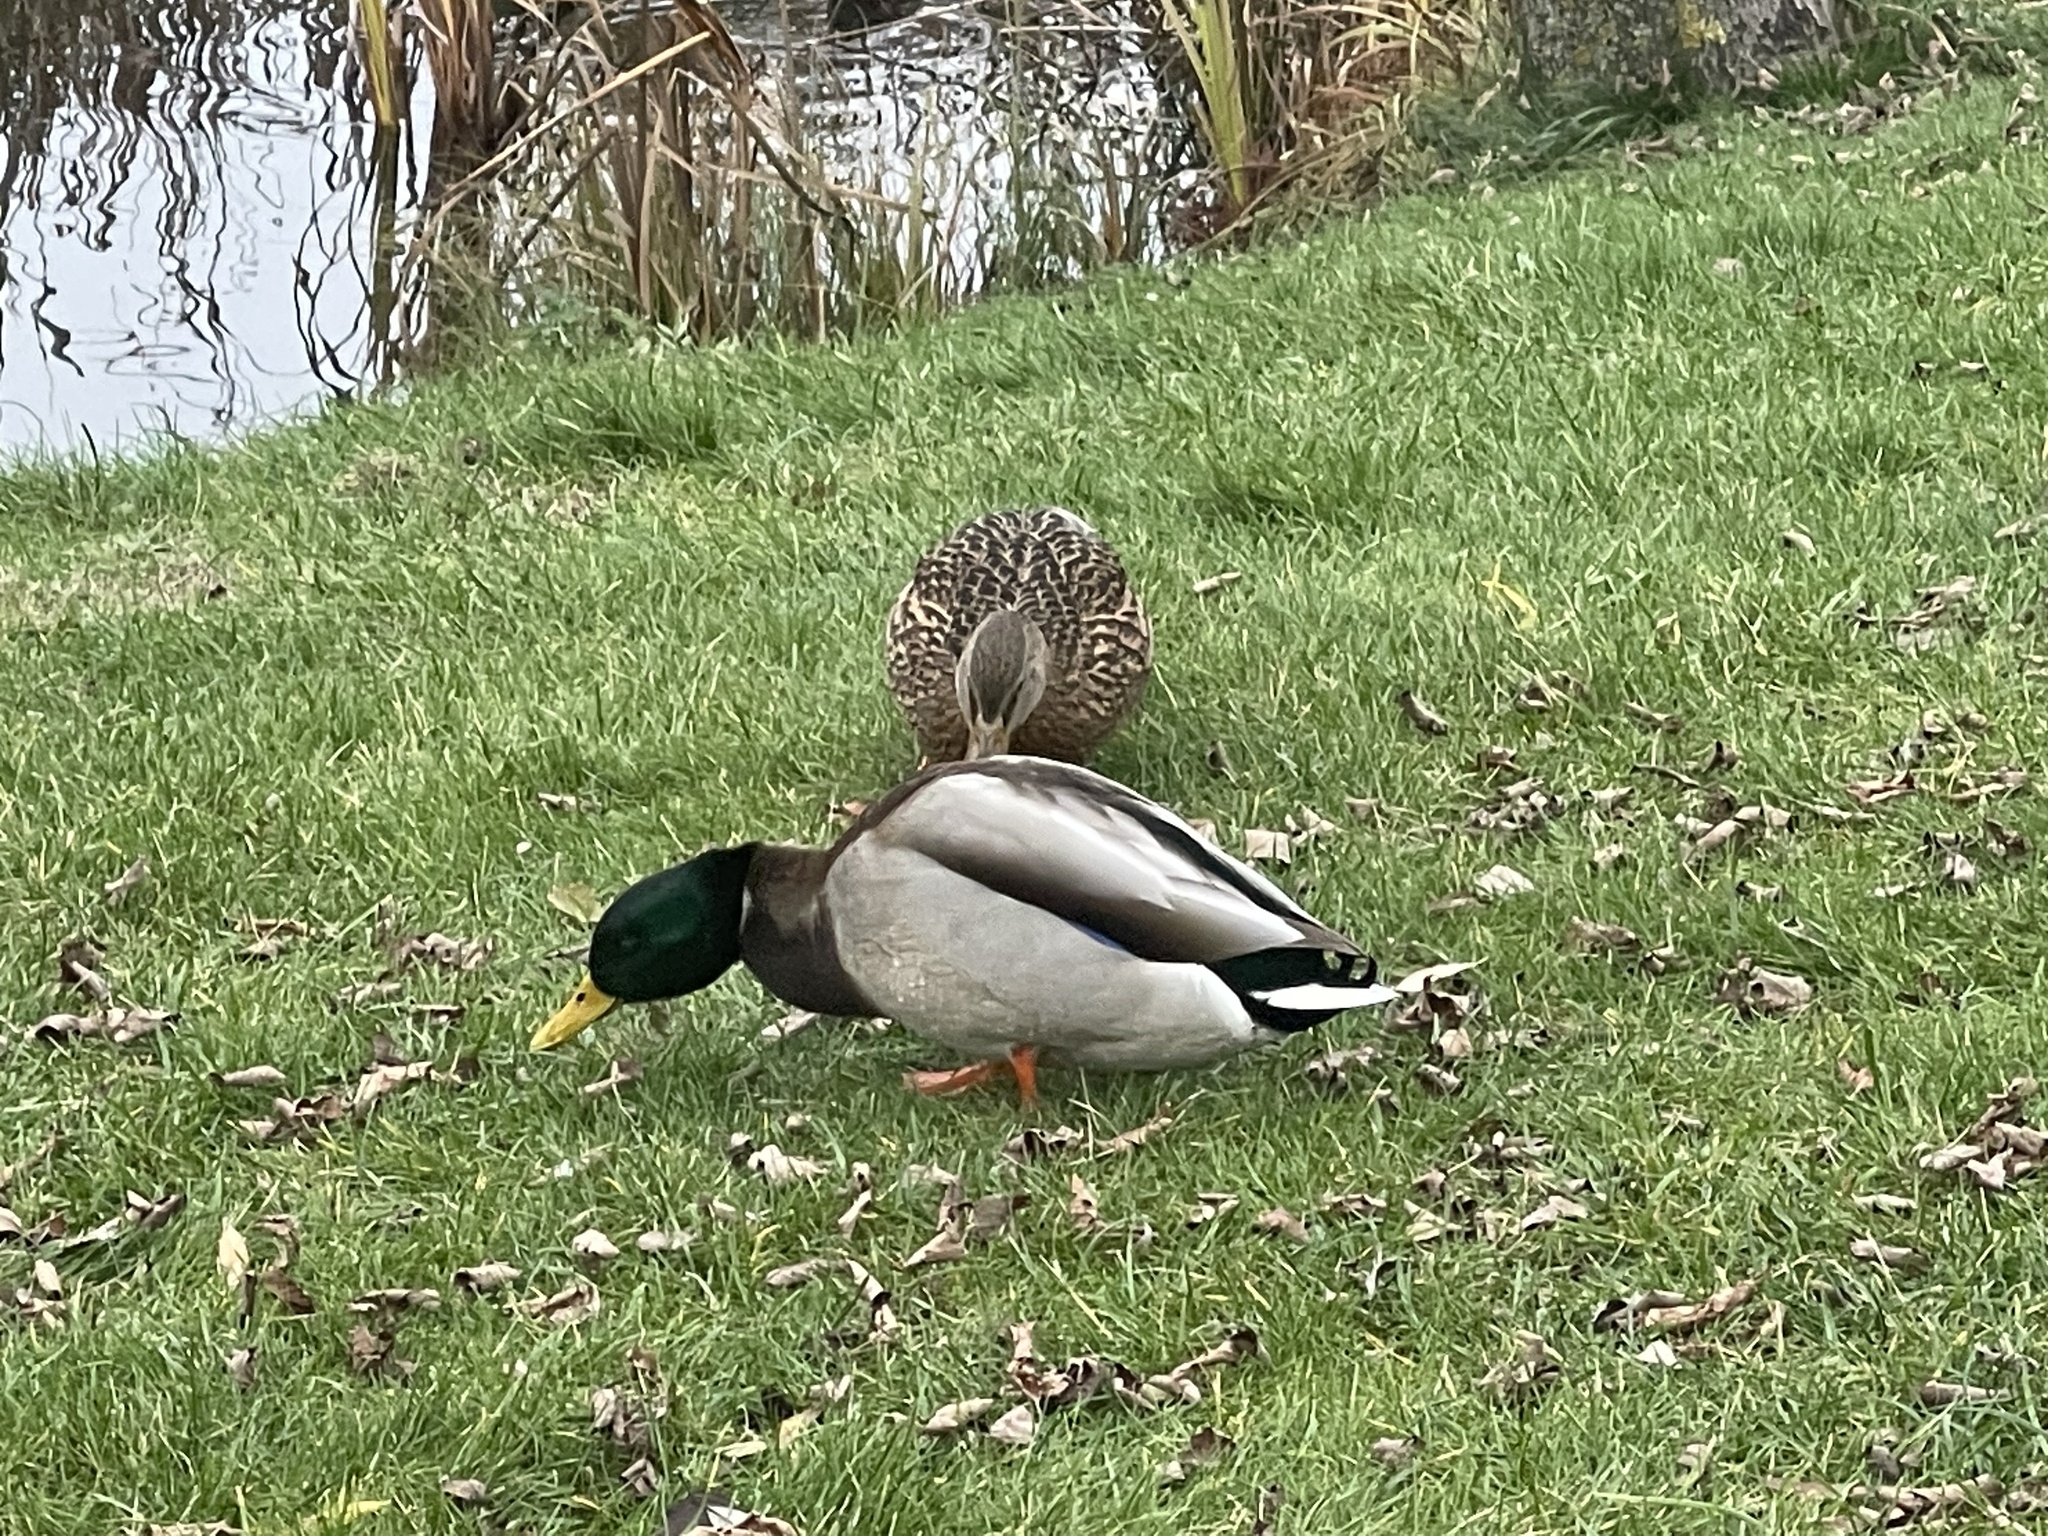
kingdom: Animalia
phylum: Chordata
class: Aves
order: Anseriformes
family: Anatidae
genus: Anas
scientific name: Anas platyrhynchos
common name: Mallard
